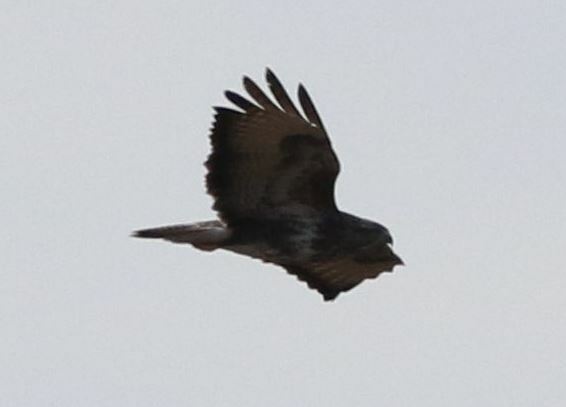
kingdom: Animalia
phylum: Chordata
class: Aves
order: Accipitriformes
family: Accipitridae
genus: Buteo
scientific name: Buteo buteo
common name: Common buzzard
